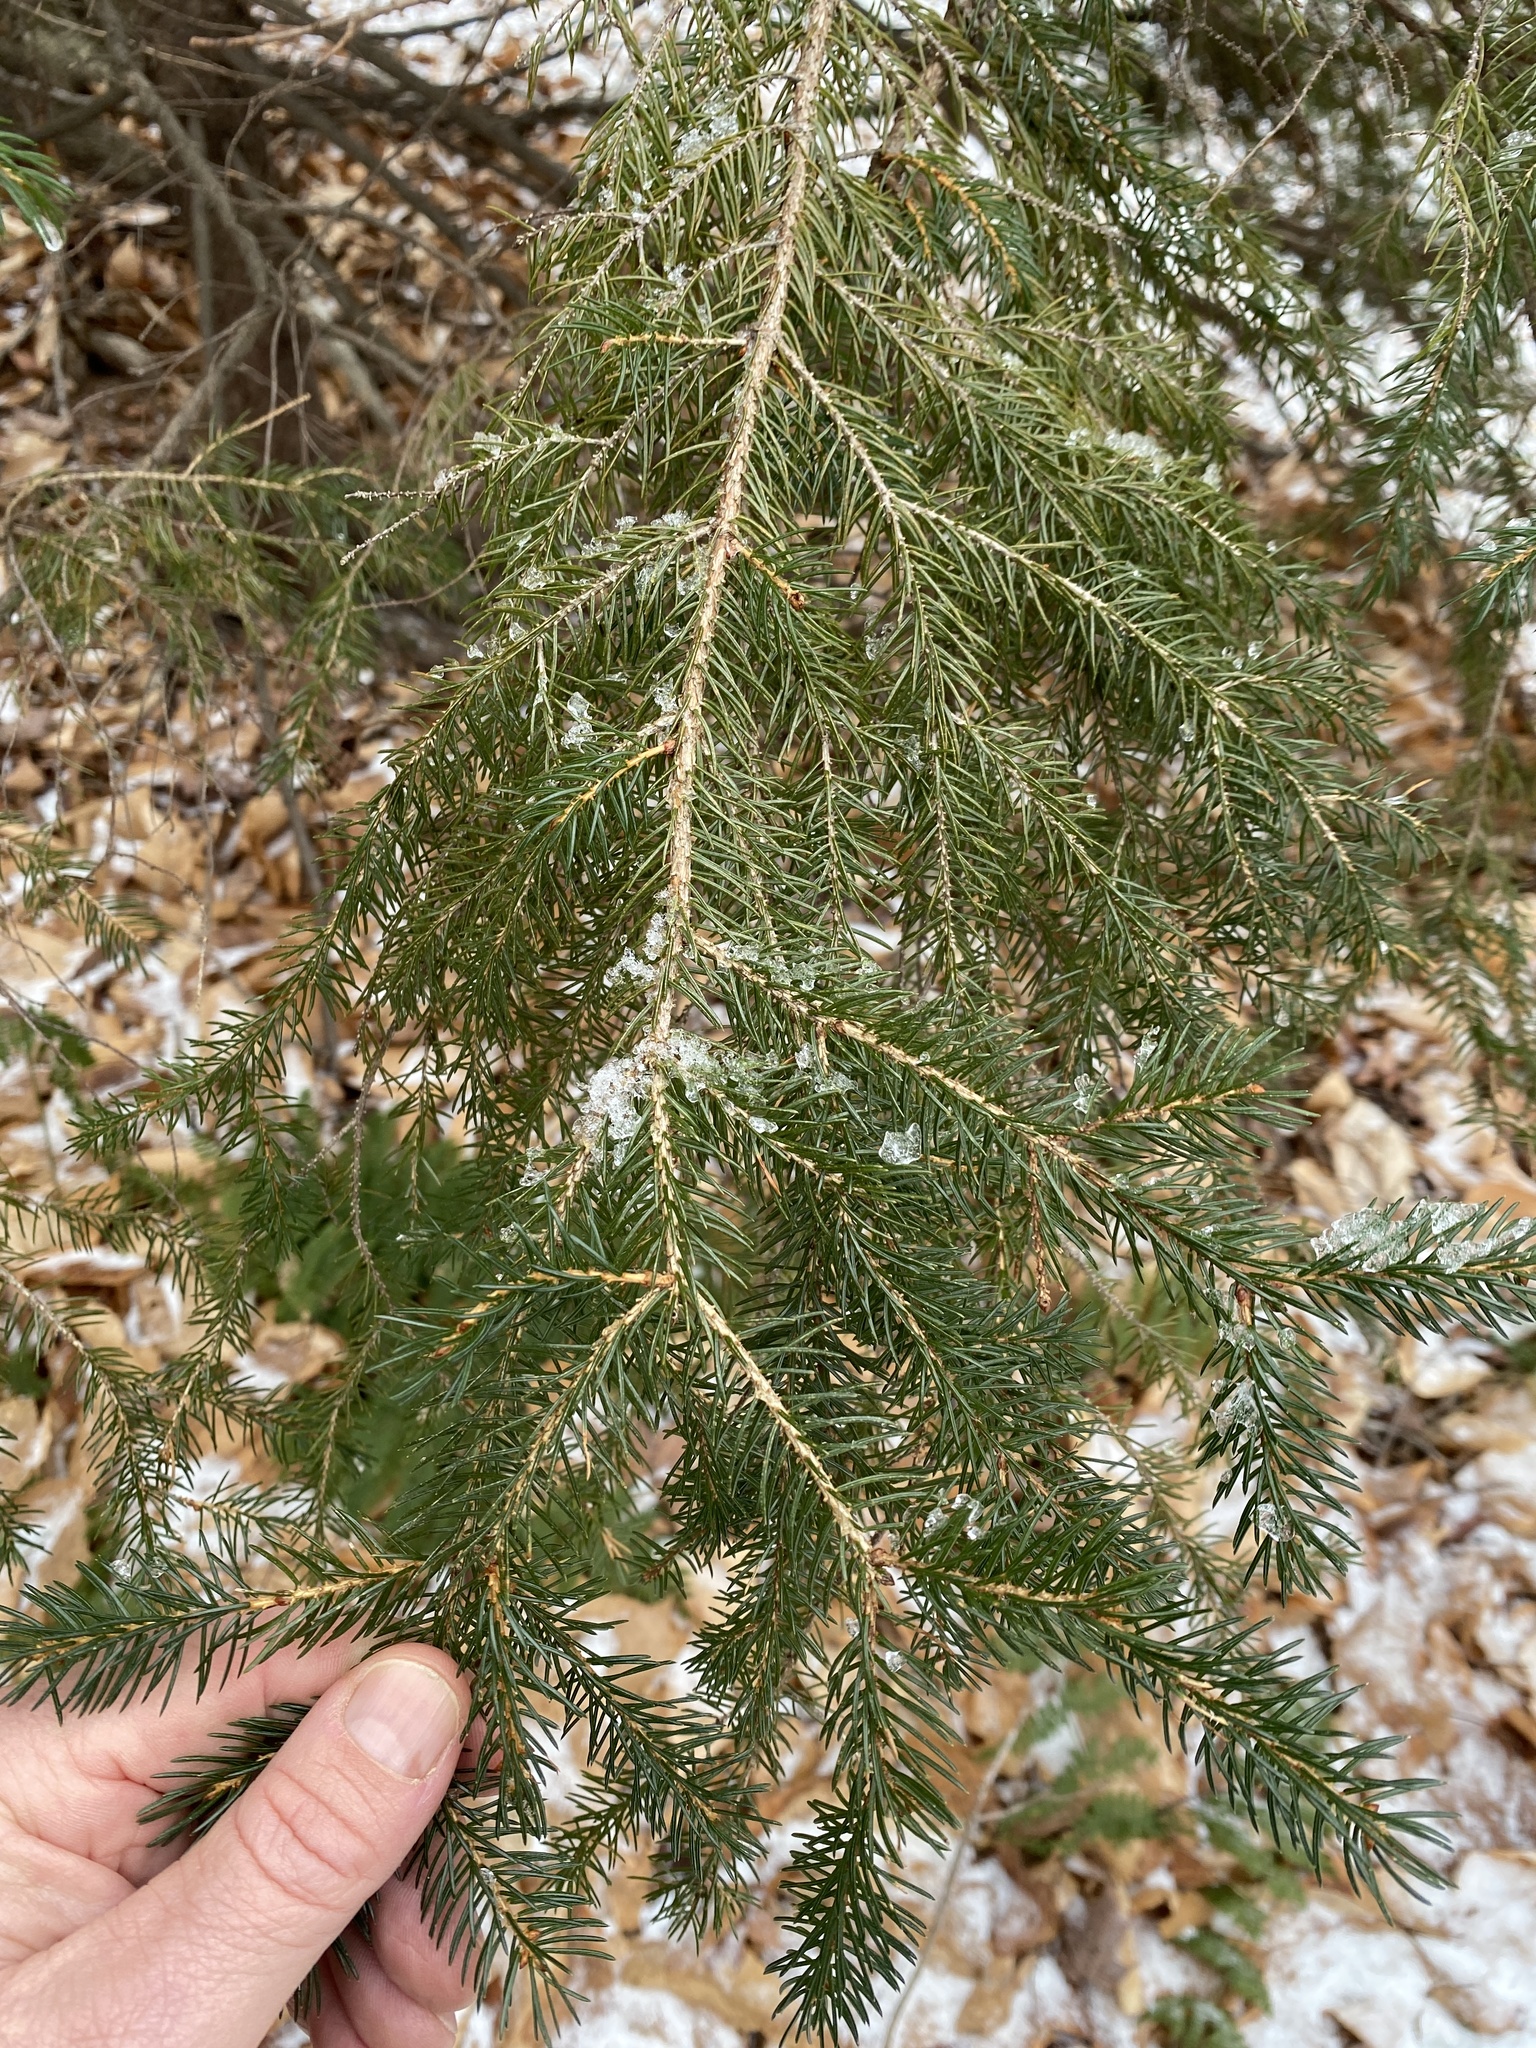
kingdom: Plantae
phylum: Tracheophyta
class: Pinopsida
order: Pinales
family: Pinaceae
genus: Picea
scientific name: Picea rubens
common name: Red spruce
